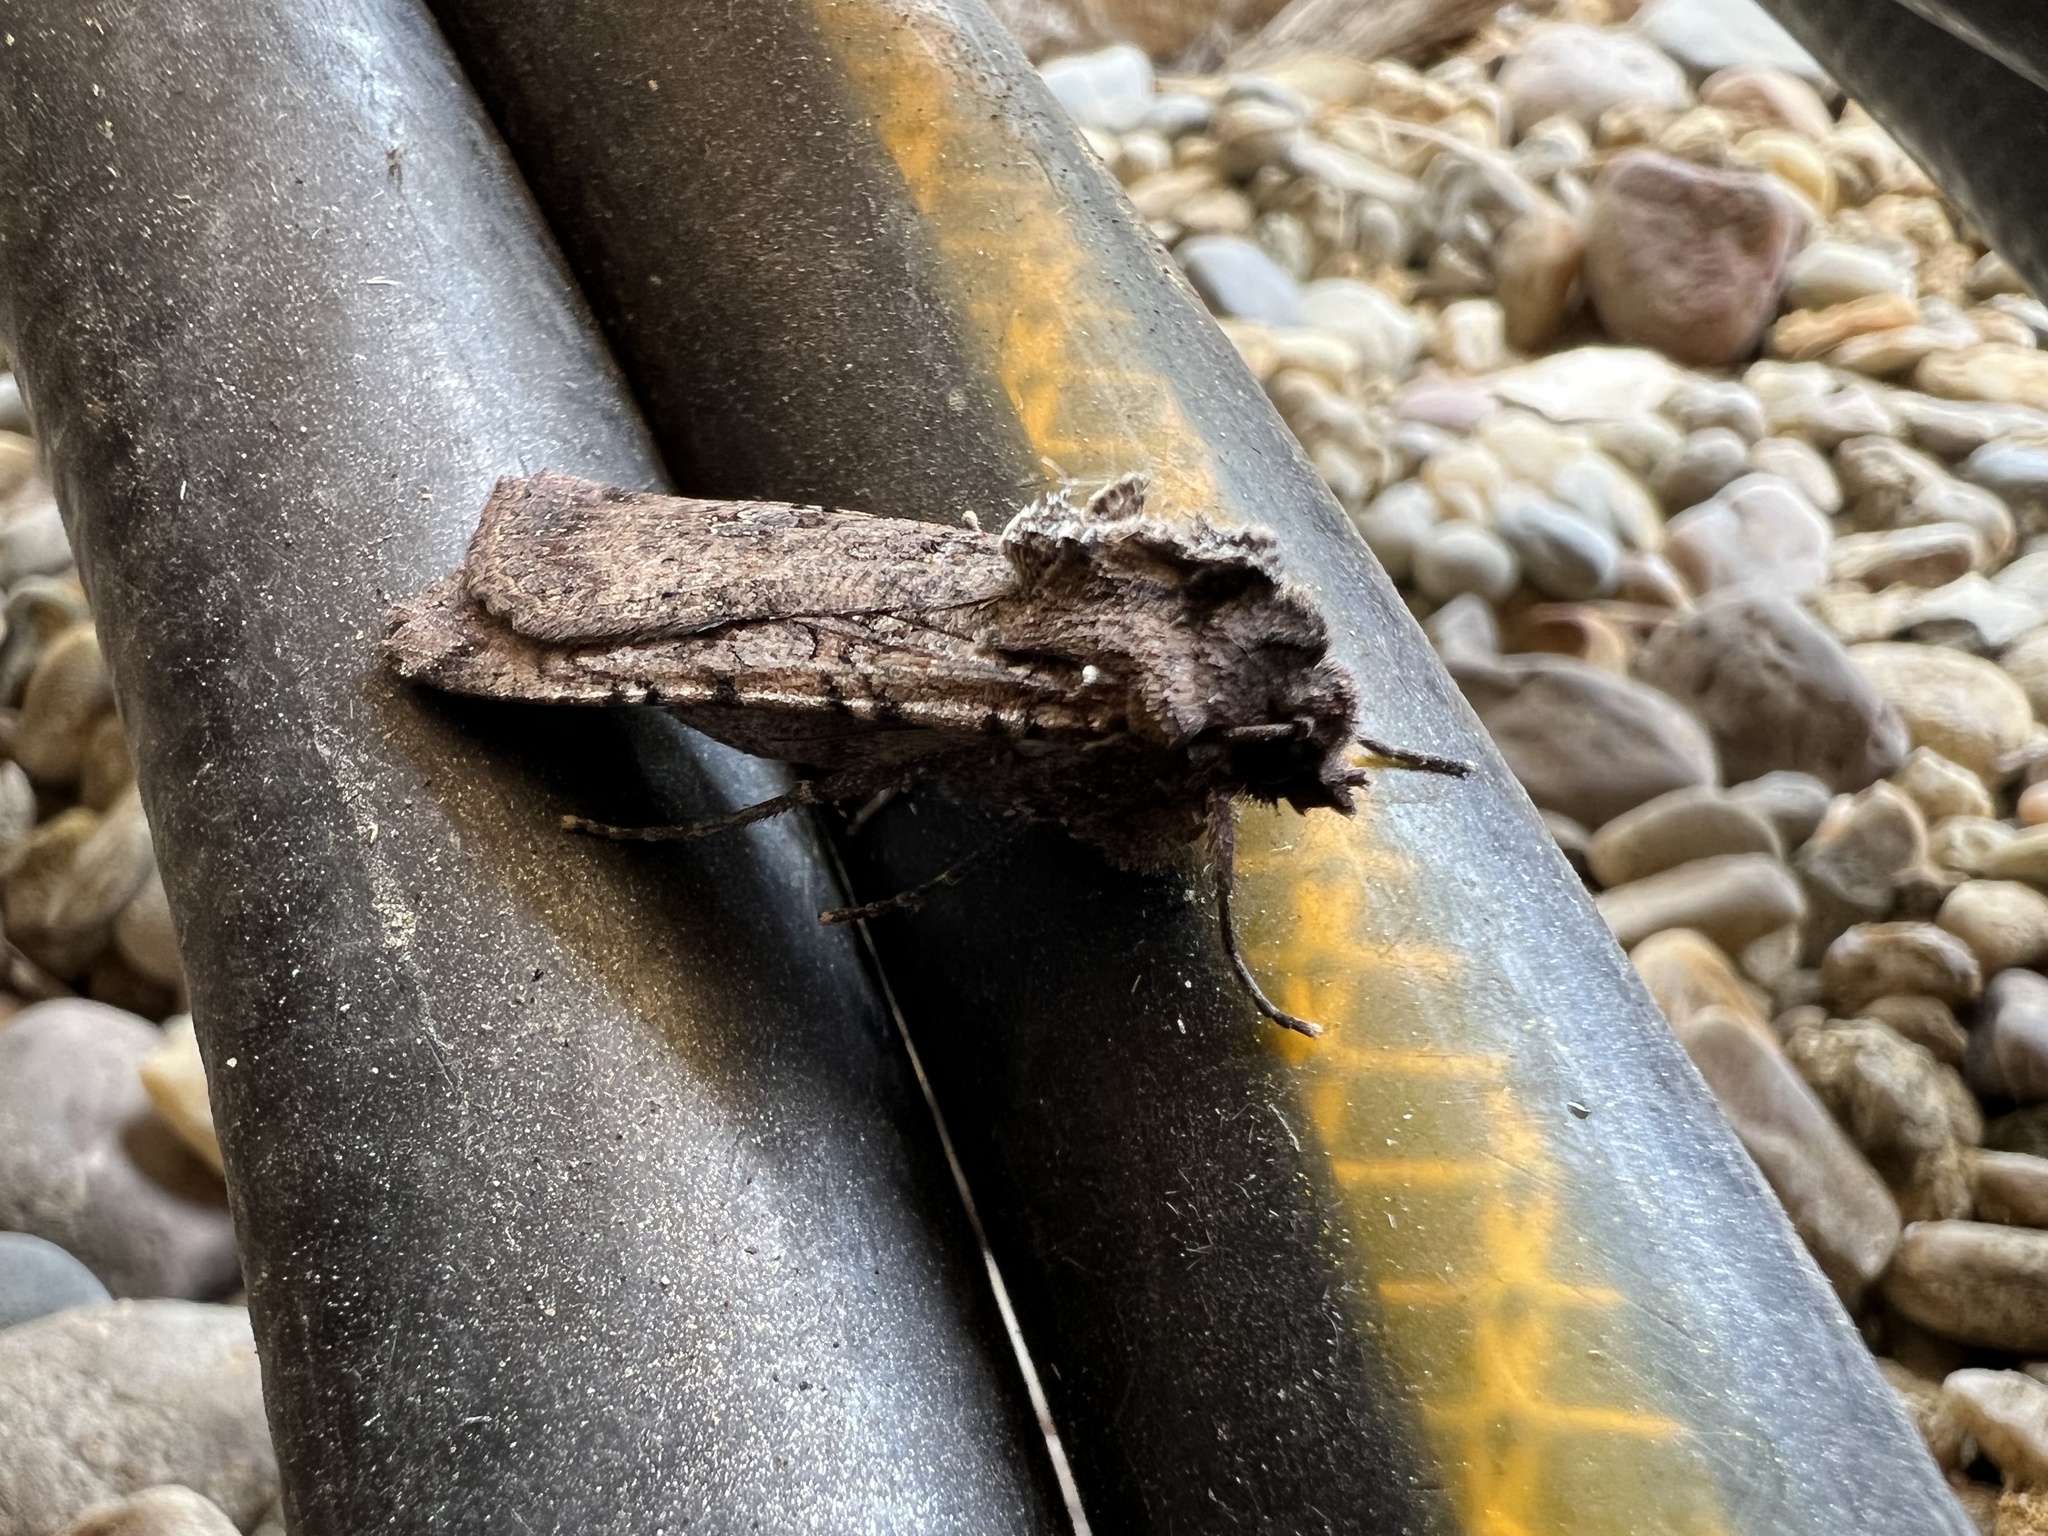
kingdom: Animalia
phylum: Arthropoda
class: Insecta
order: Lepidoptera
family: Noctuidae
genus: Peridroma
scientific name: Peridroma saucia
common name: Pearly underwing
